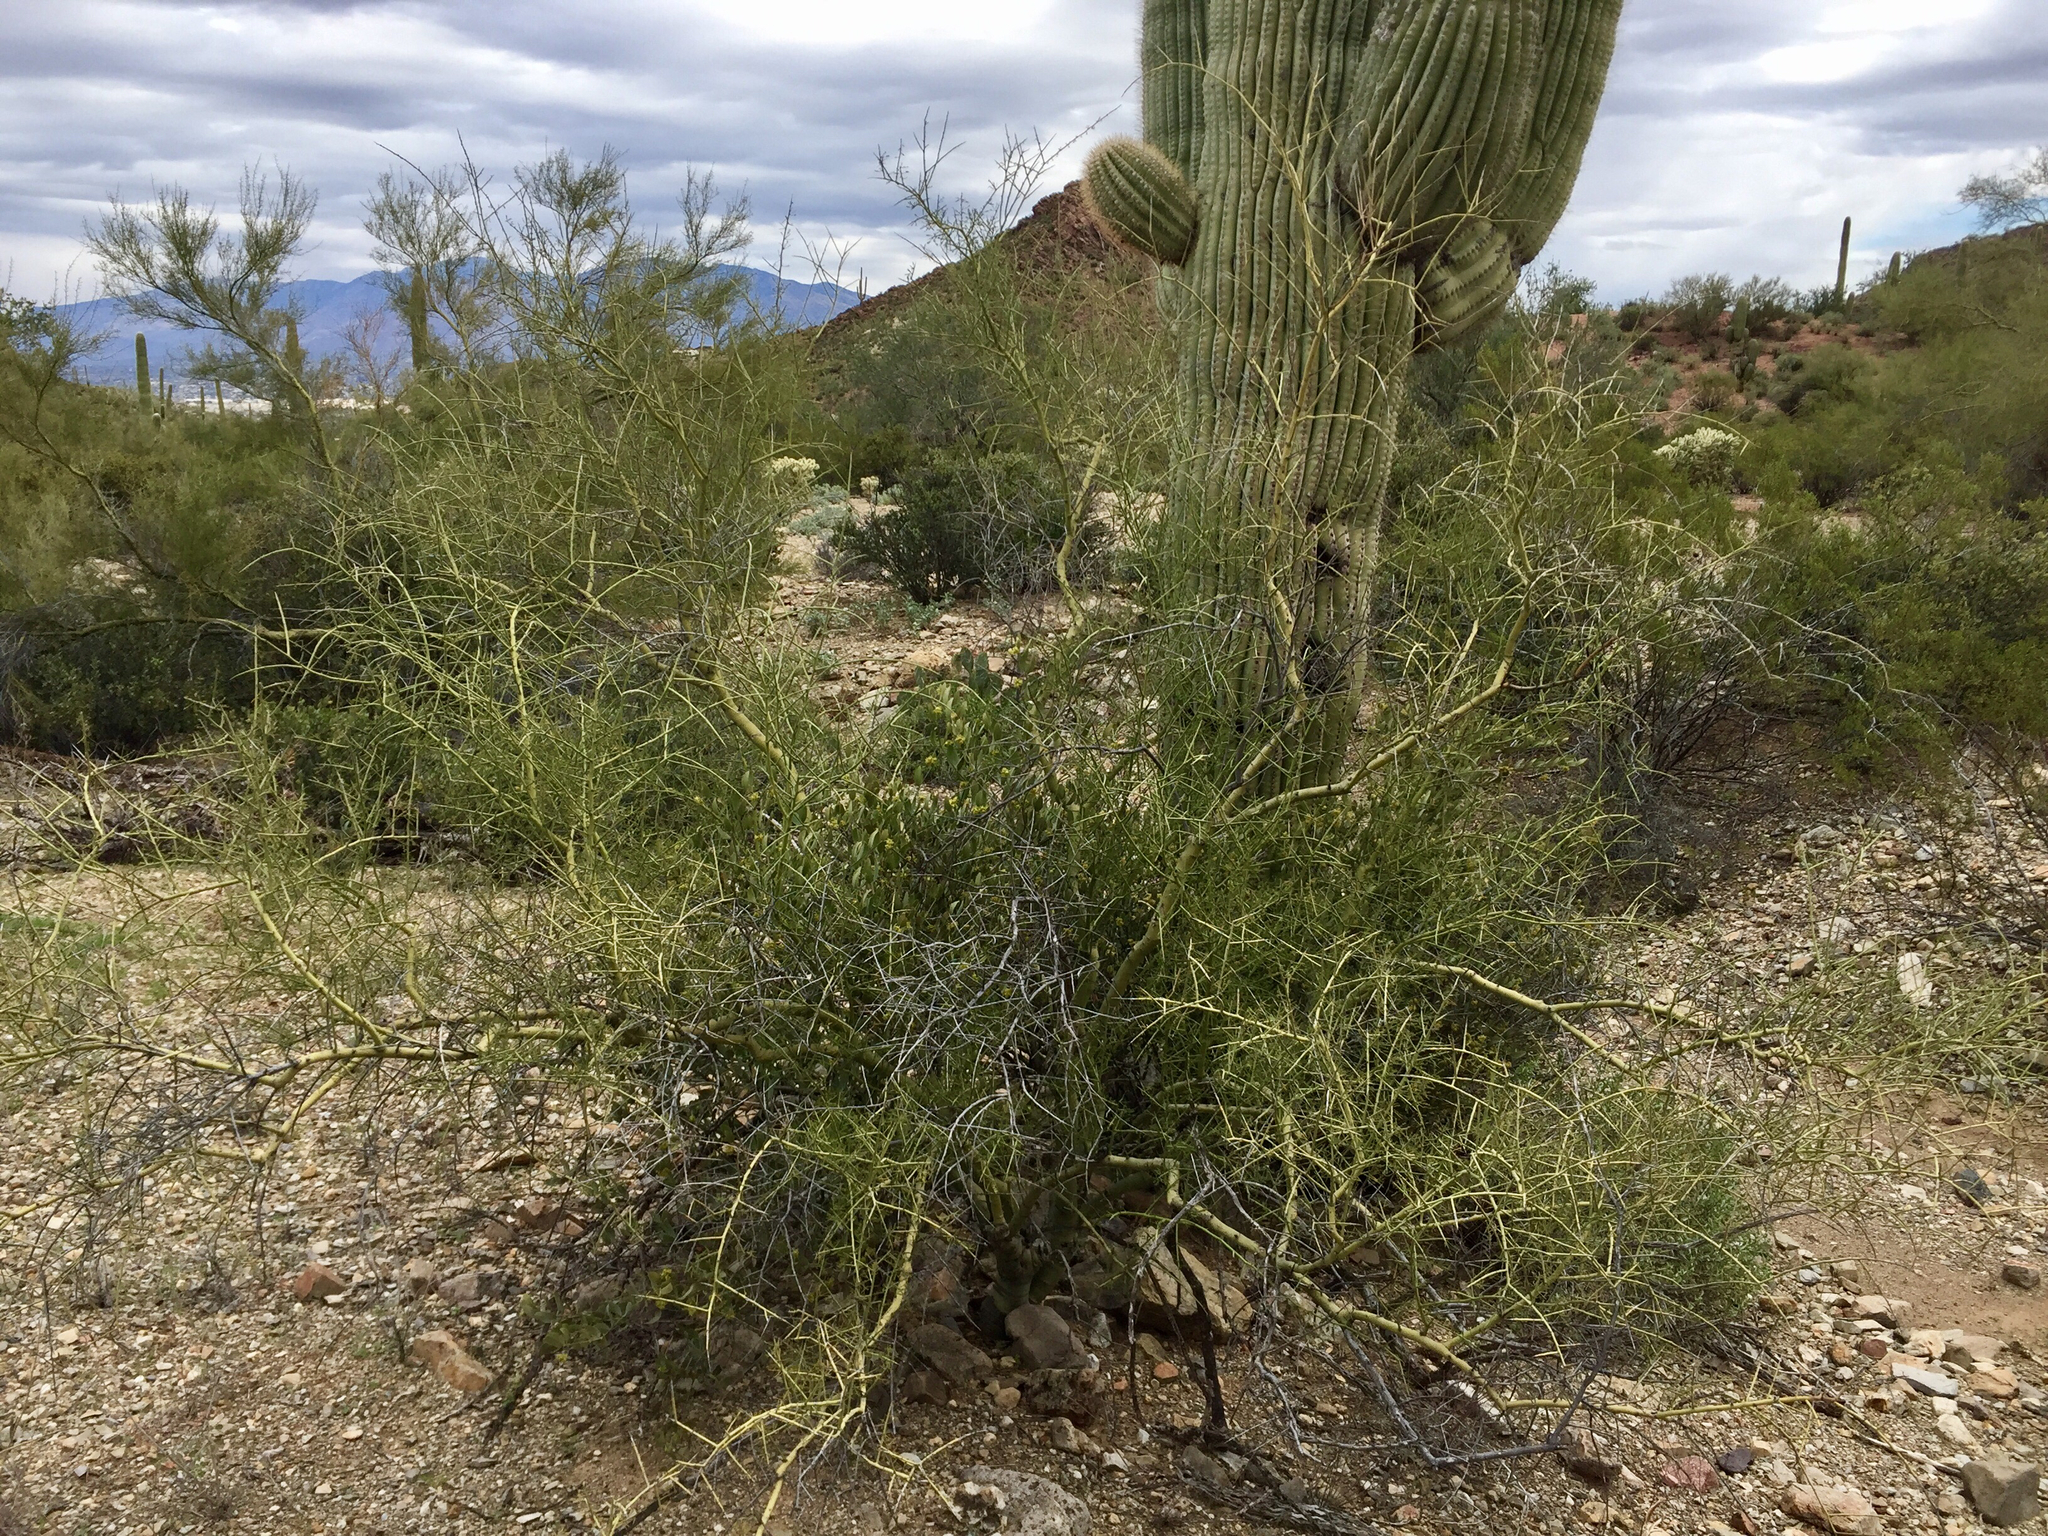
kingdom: Plantae
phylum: Tracheophyta
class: Magnoliopsida
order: Fabales
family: Fabaceae
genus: Parkinsonia
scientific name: Parkinsonia microphylla
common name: Yellow paloverde
